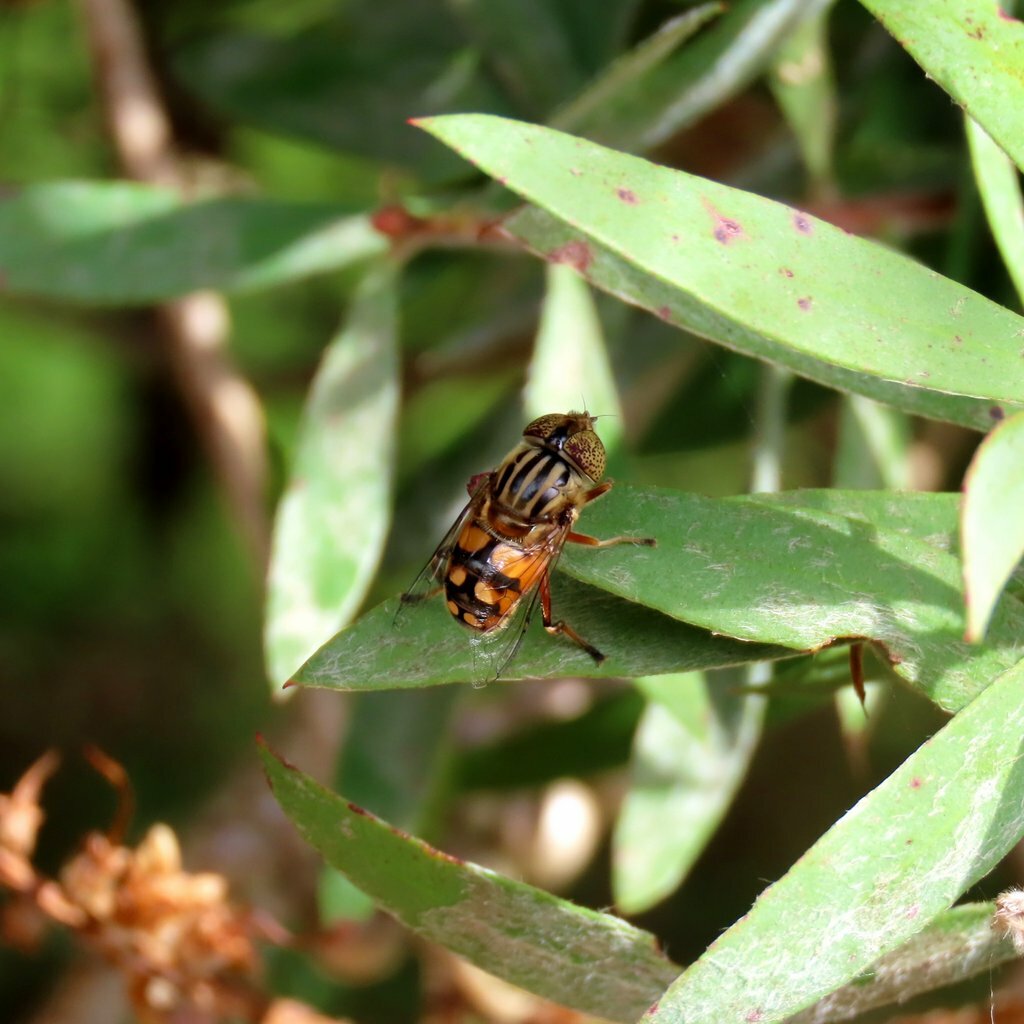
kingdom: Animalia
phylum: Arthropoda
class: Insecta
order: Diptera
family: Syrphidae
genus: Eristalinus
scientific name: Eristalinus punctulatus
